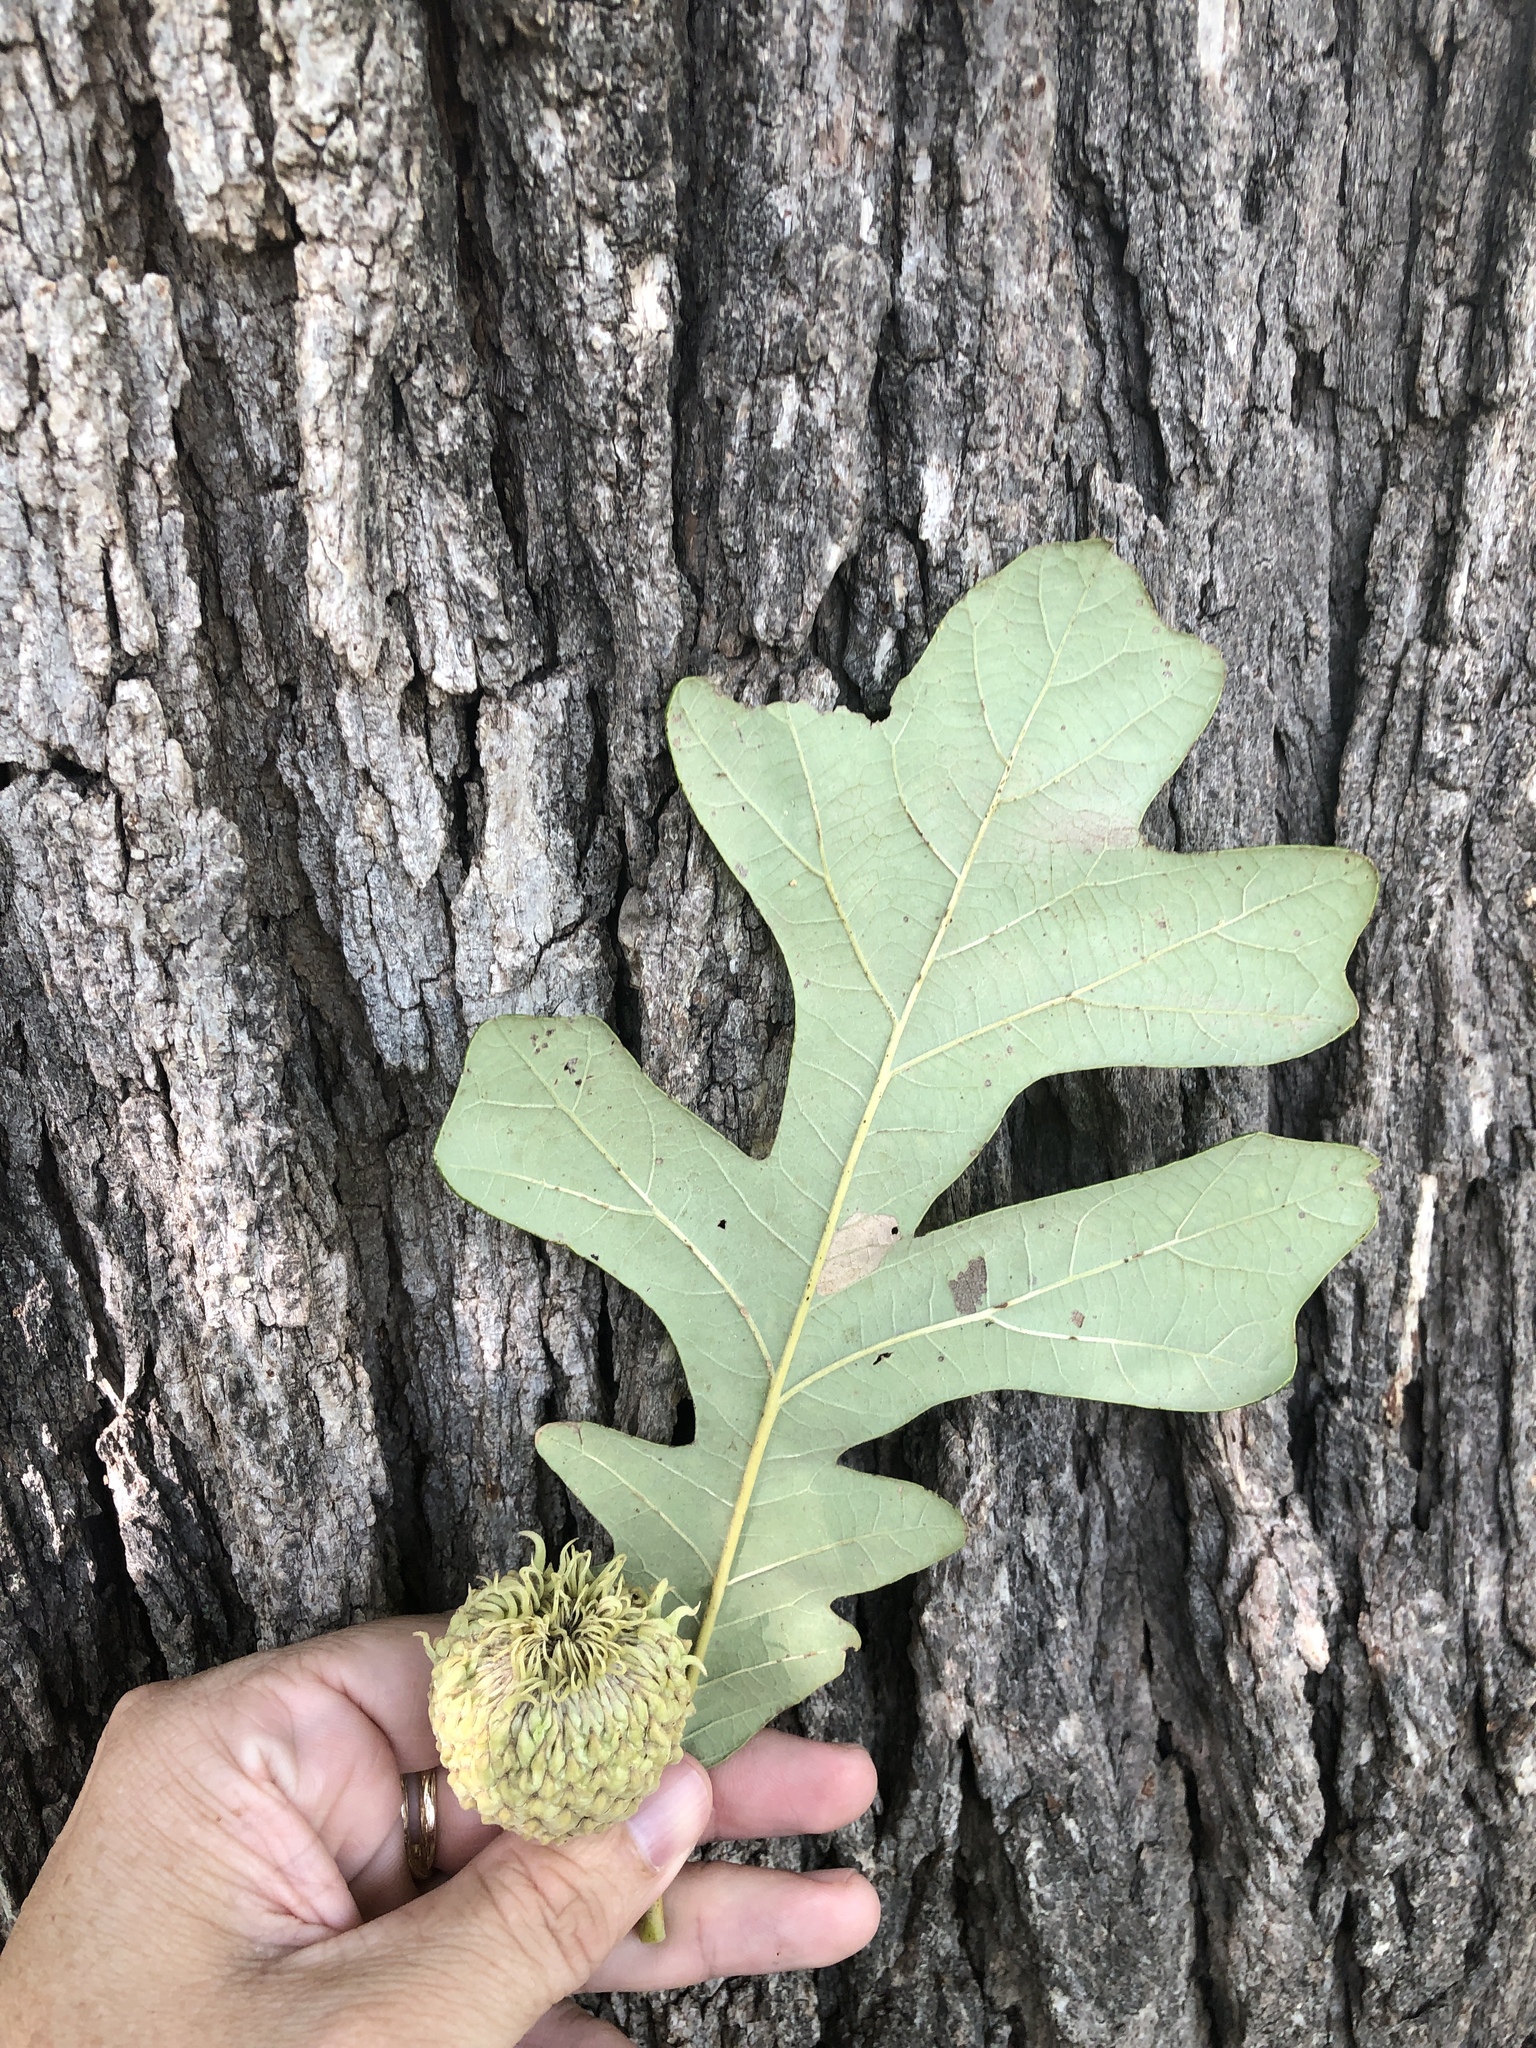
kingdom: Plantae
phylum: Tracheophyta
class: Magnoliopsida
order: Fagales
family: Fagaceae
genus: Quercus
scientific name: Quercus macrocarpa
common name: Bur oak
